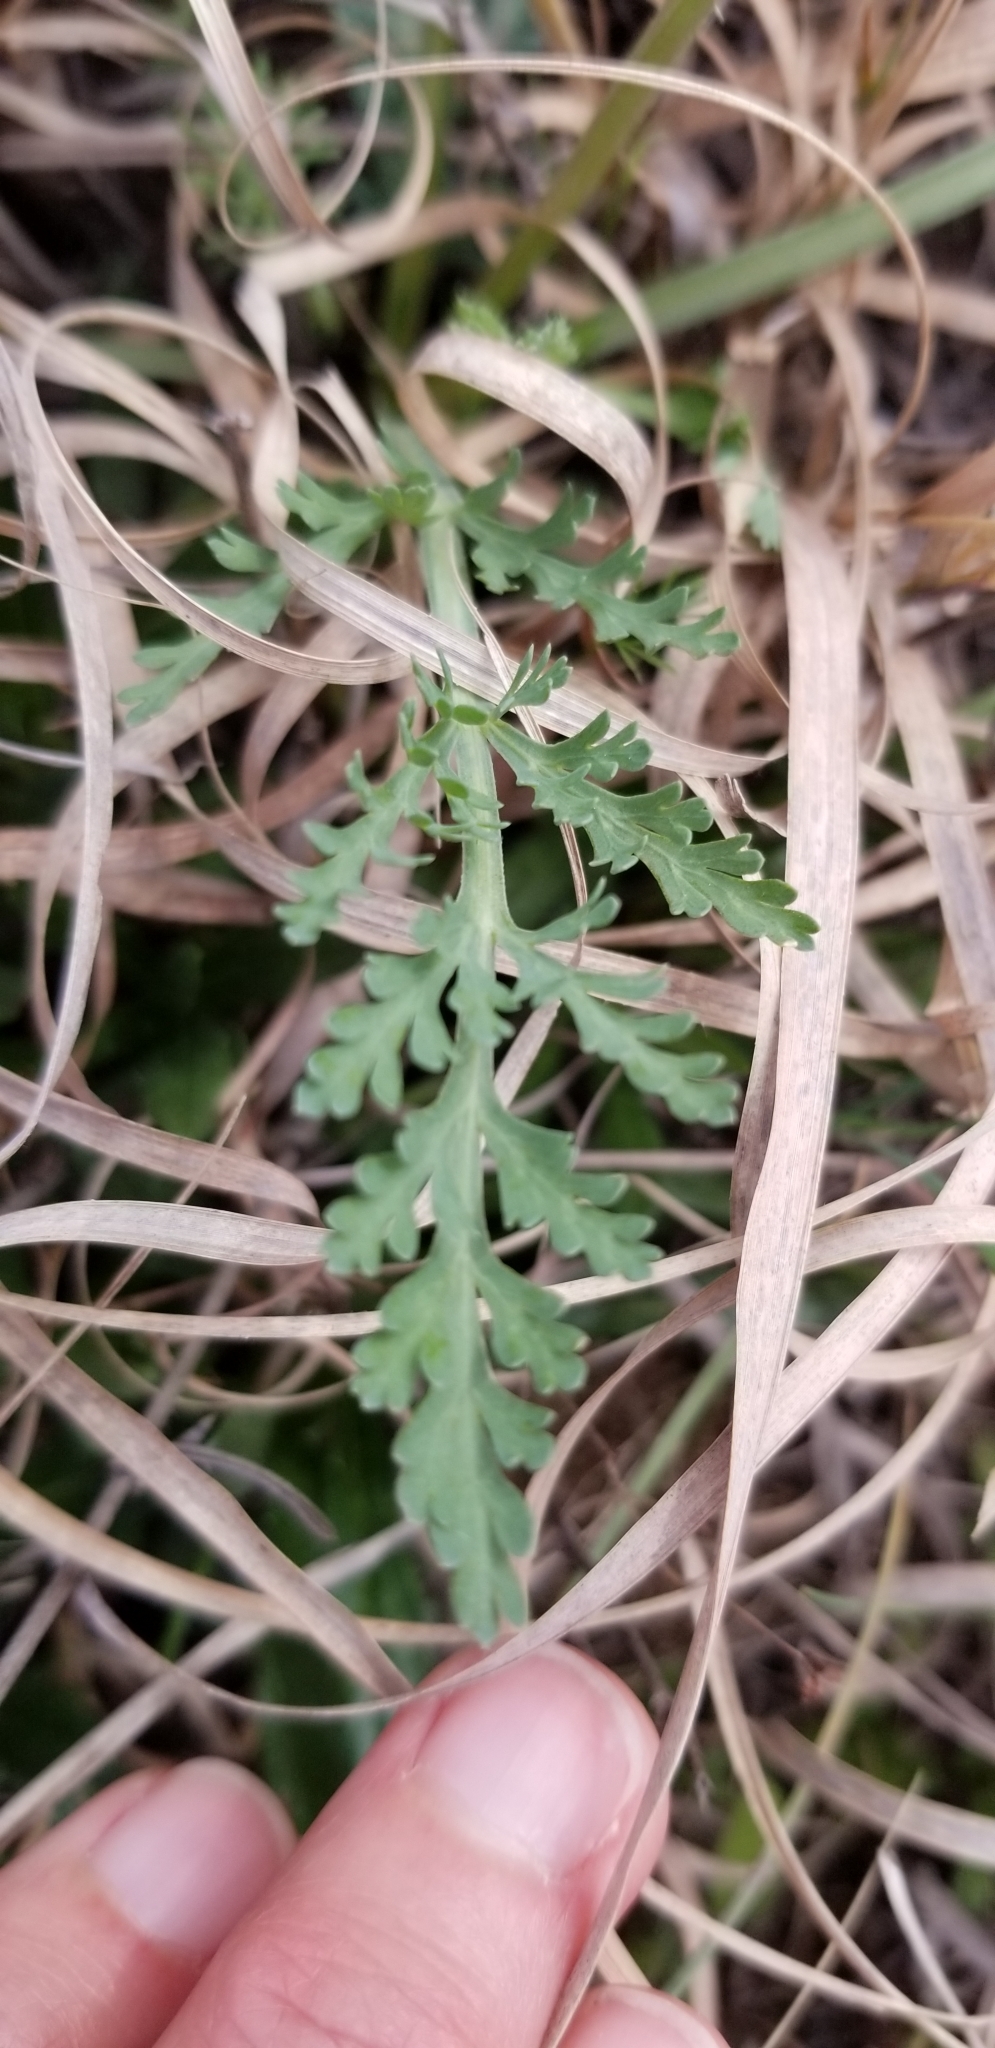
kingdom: Plantae
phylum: Tracheophyta
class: Magnoliopsida
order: Apiales
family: Apiaceae
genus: Vesper
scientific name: Vesper macrorhizus
